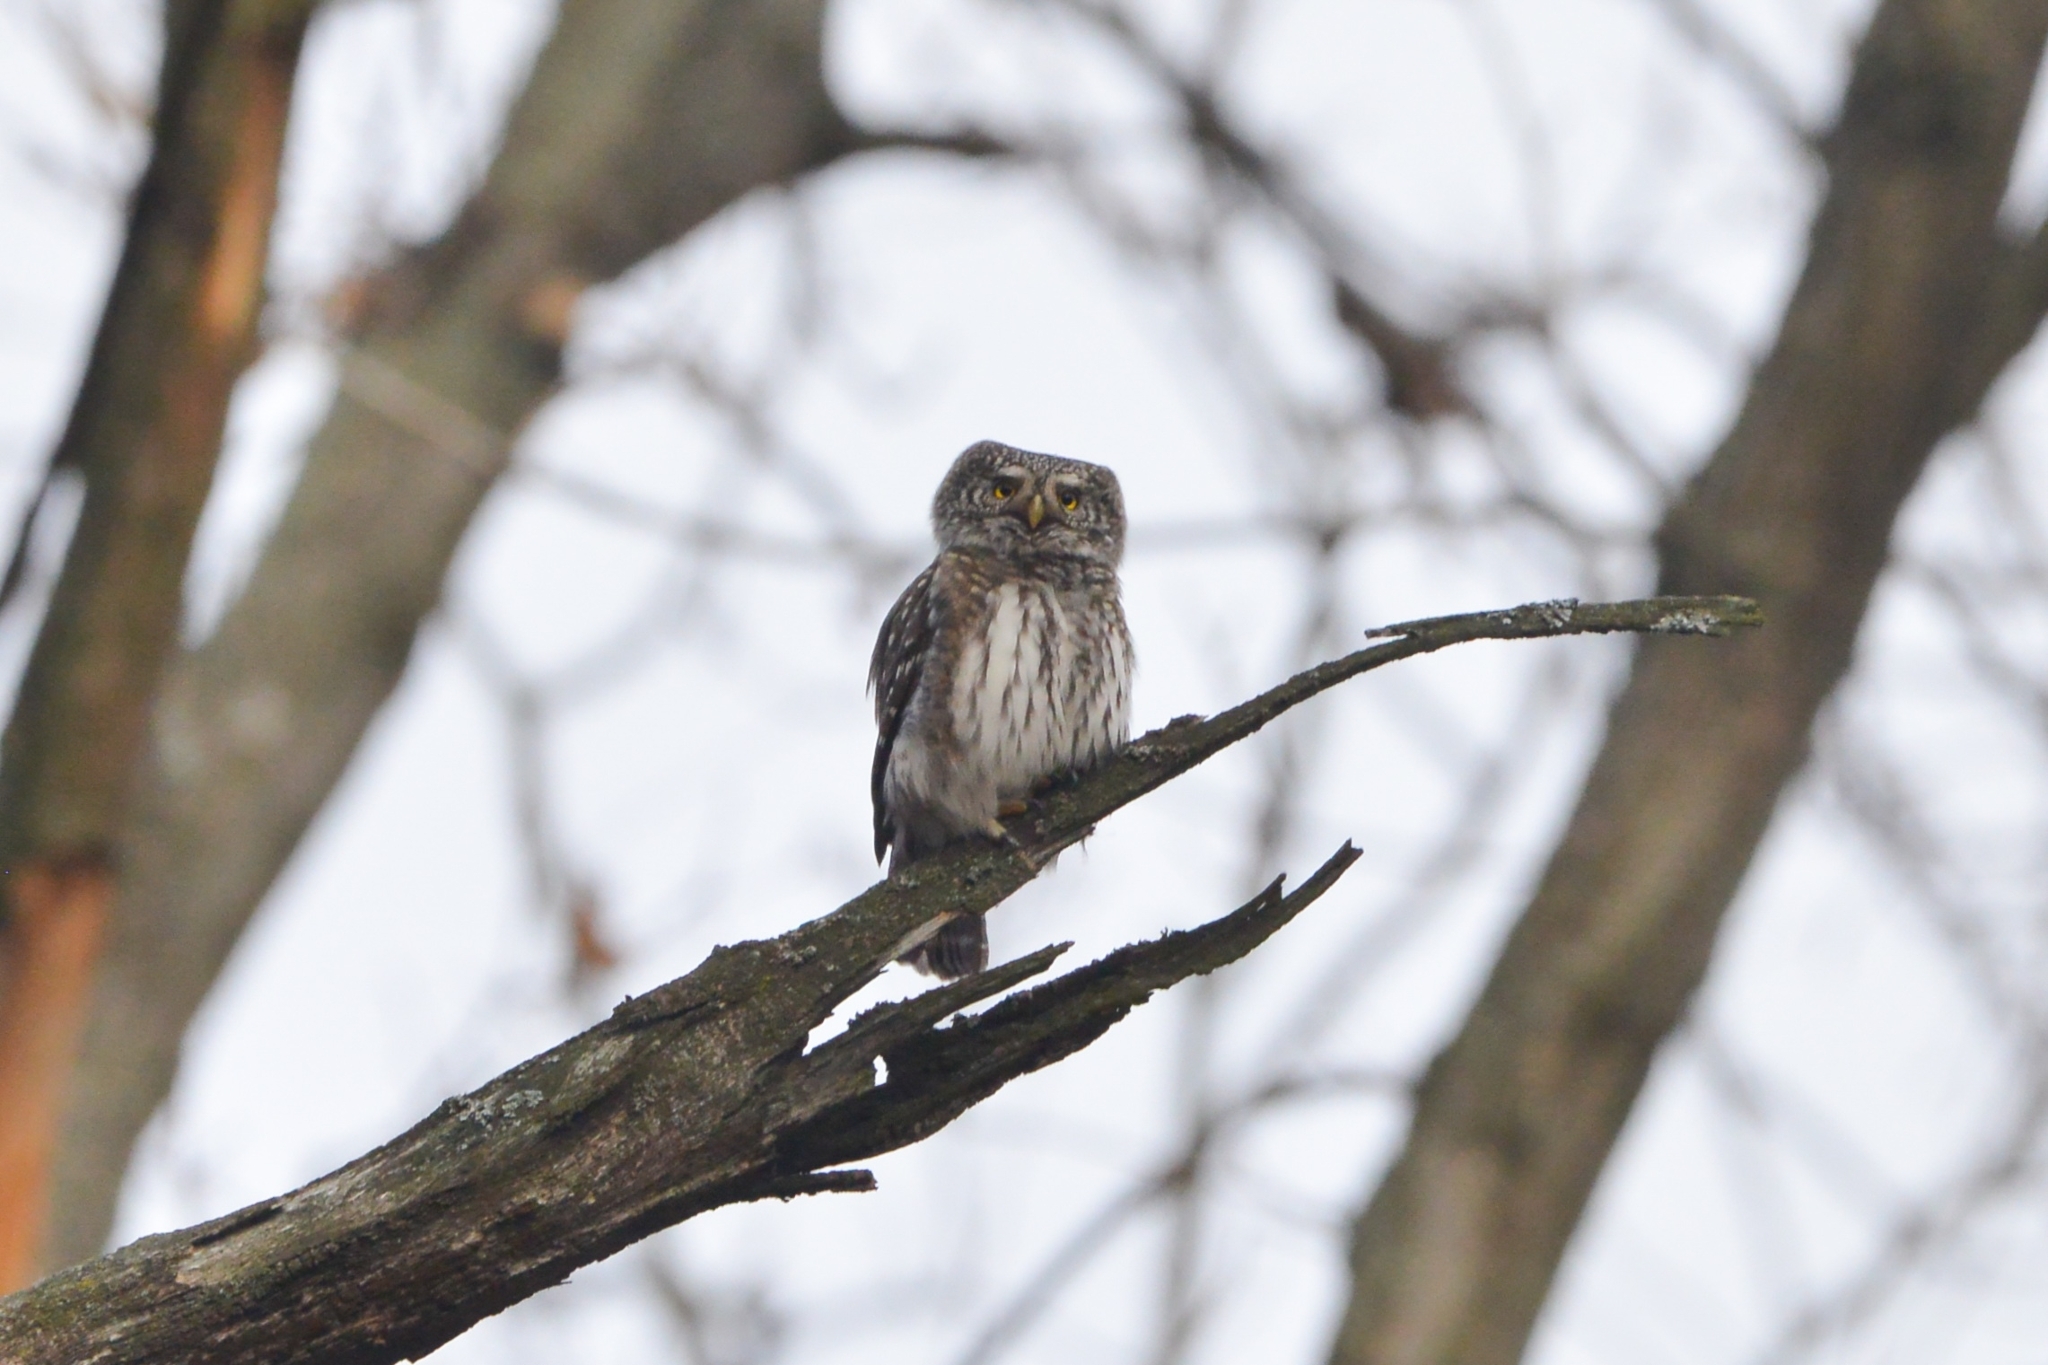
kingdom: Animalia
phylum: Chordata
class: Aves
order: Strigiformes
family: Strigidae
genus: Glaucidium
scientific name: Glaucidium passerinum
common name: Eurasian pygmy owl
